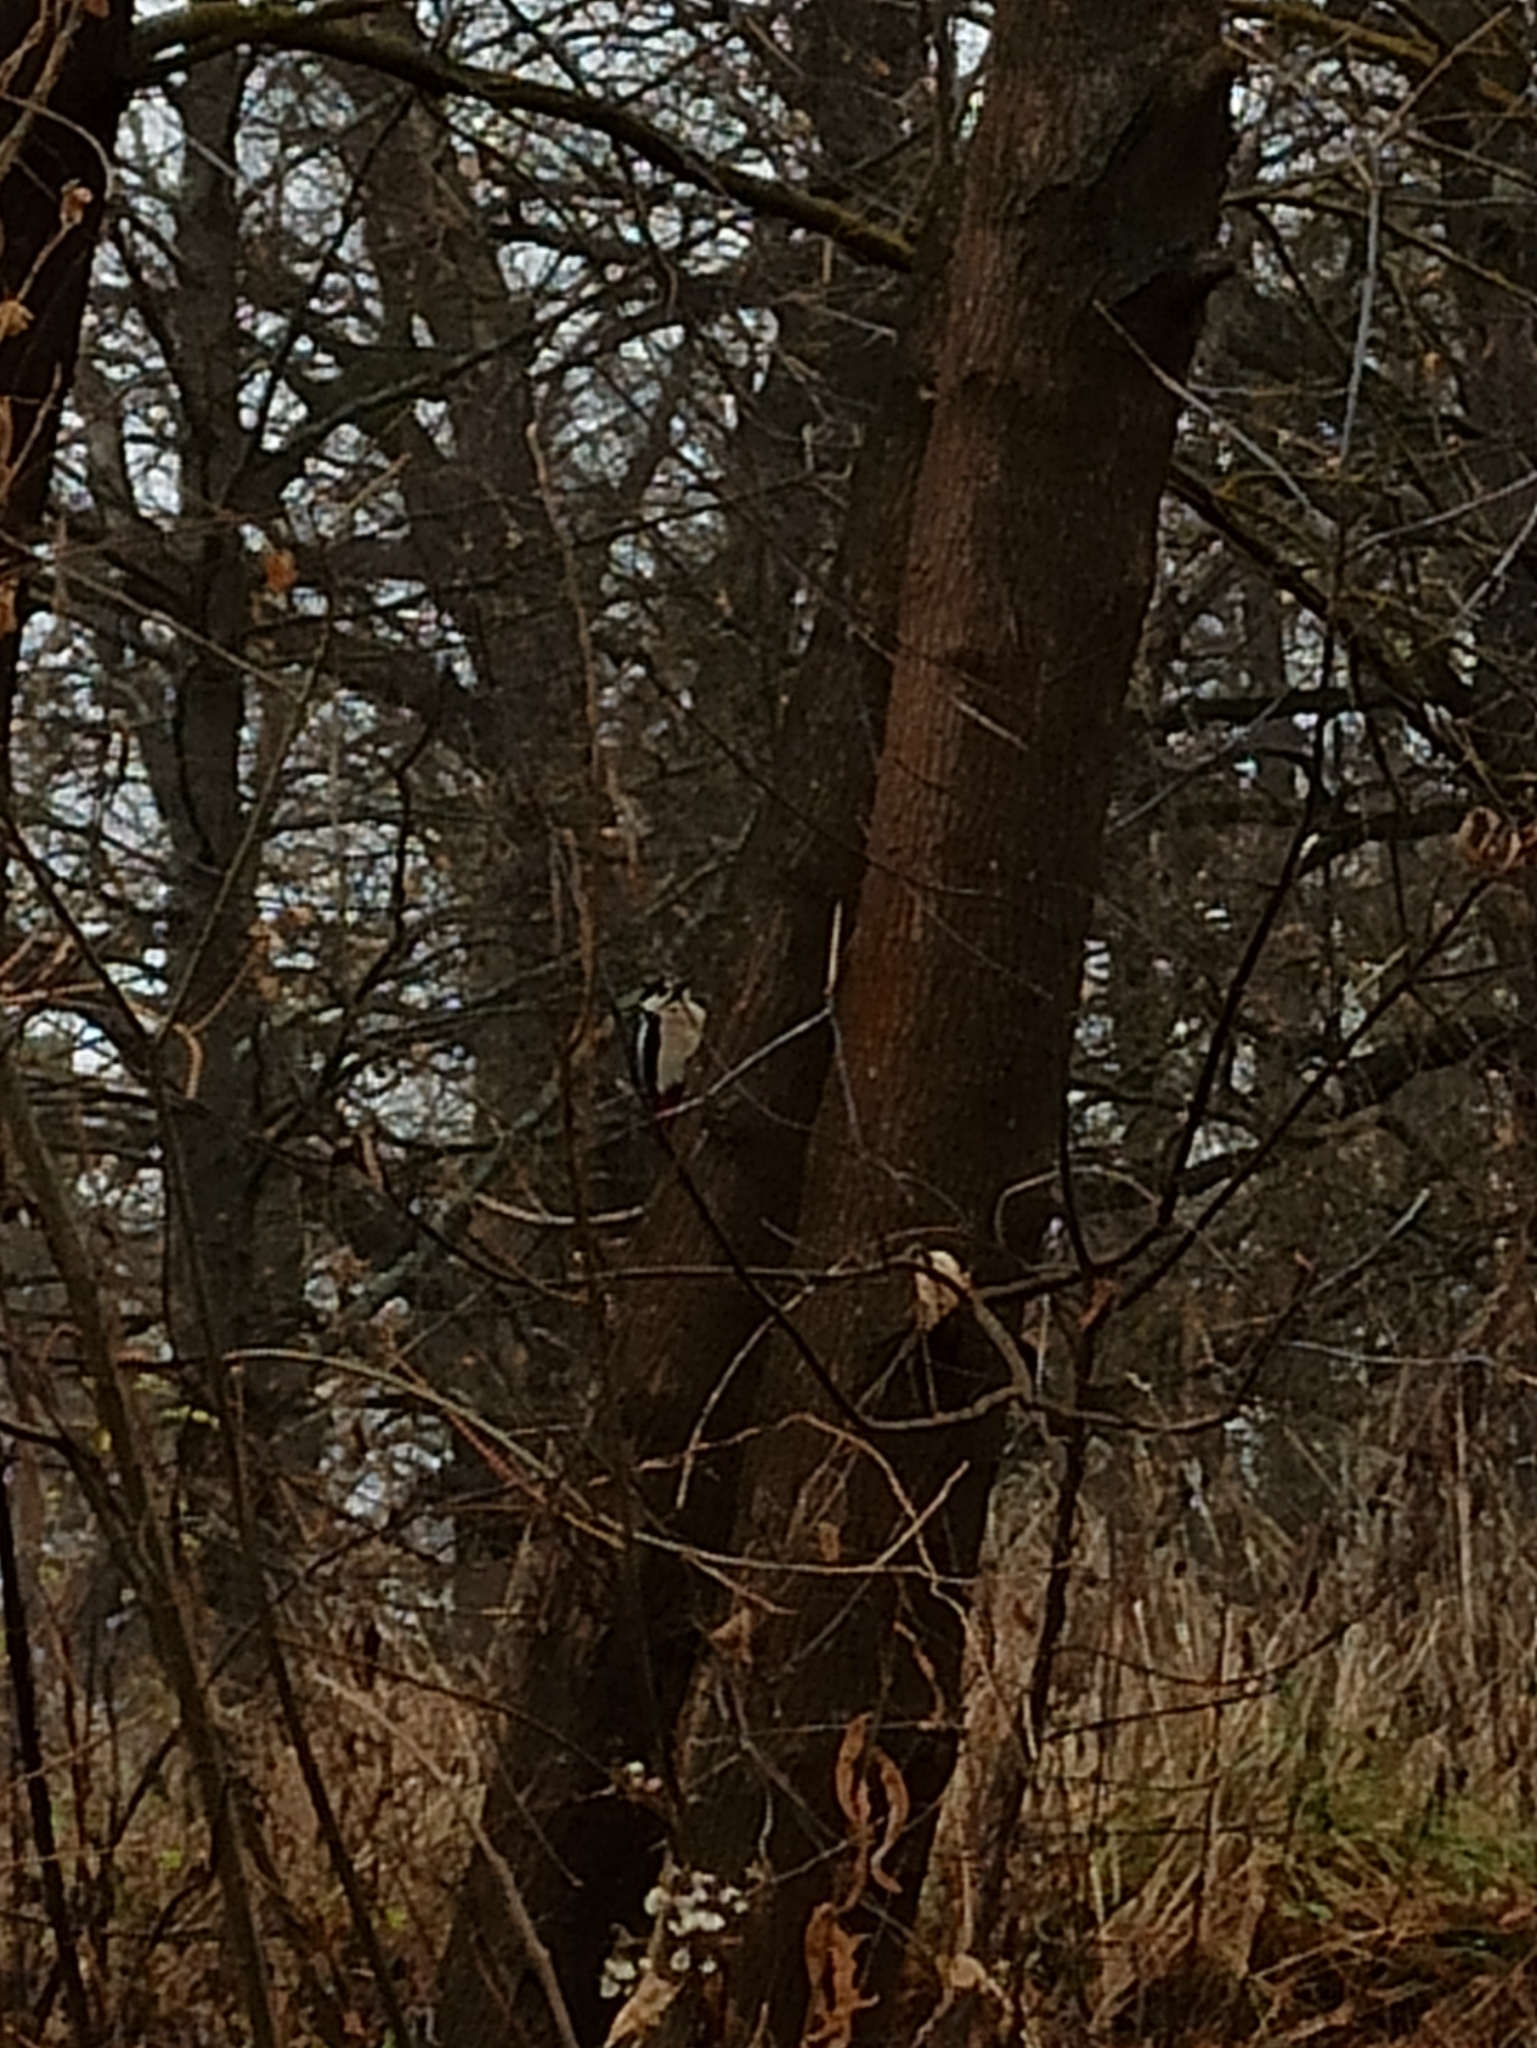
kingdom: Animalia
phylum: Chordata
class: Aves
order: Piciformes
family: Picidae
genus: Dendrocopos
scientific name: Dendrocopos major
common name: Great spotted woodpecker
